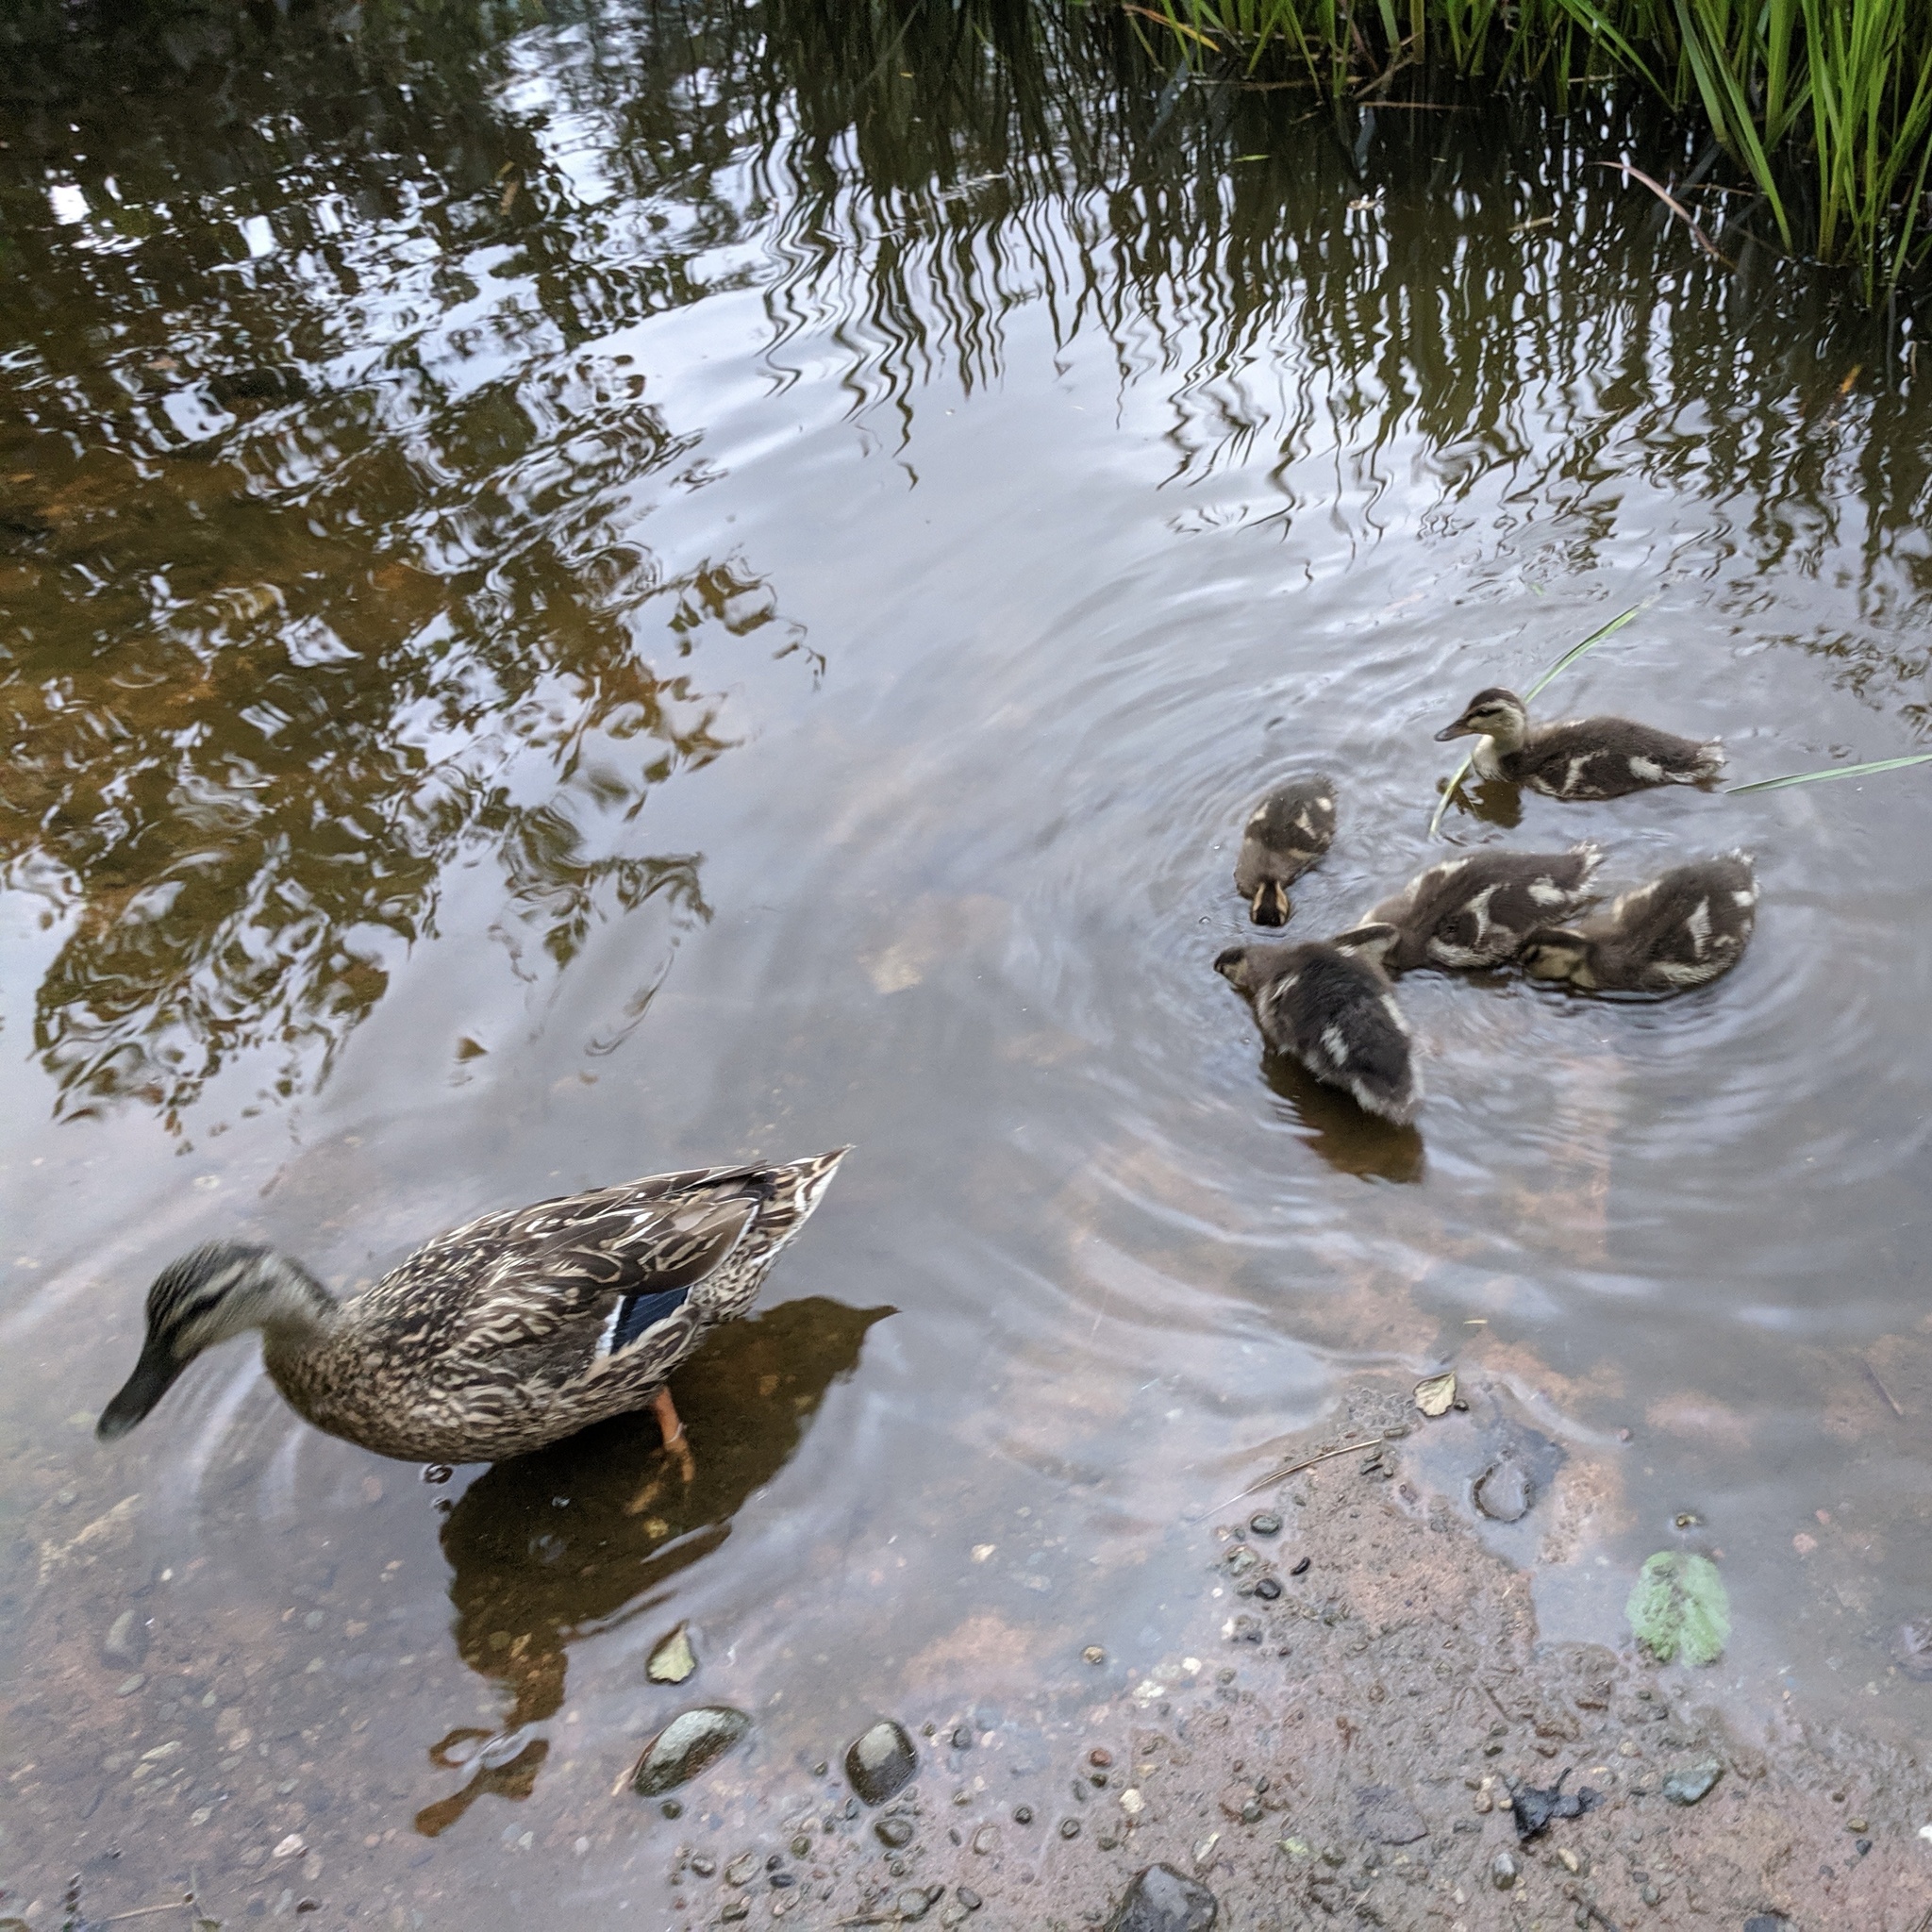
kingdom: Animalia
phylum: Chordata
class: Aves
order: Anseriformes
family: Anatidae
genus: Anas
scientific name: Anas platyrhynchos
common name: Mallard
